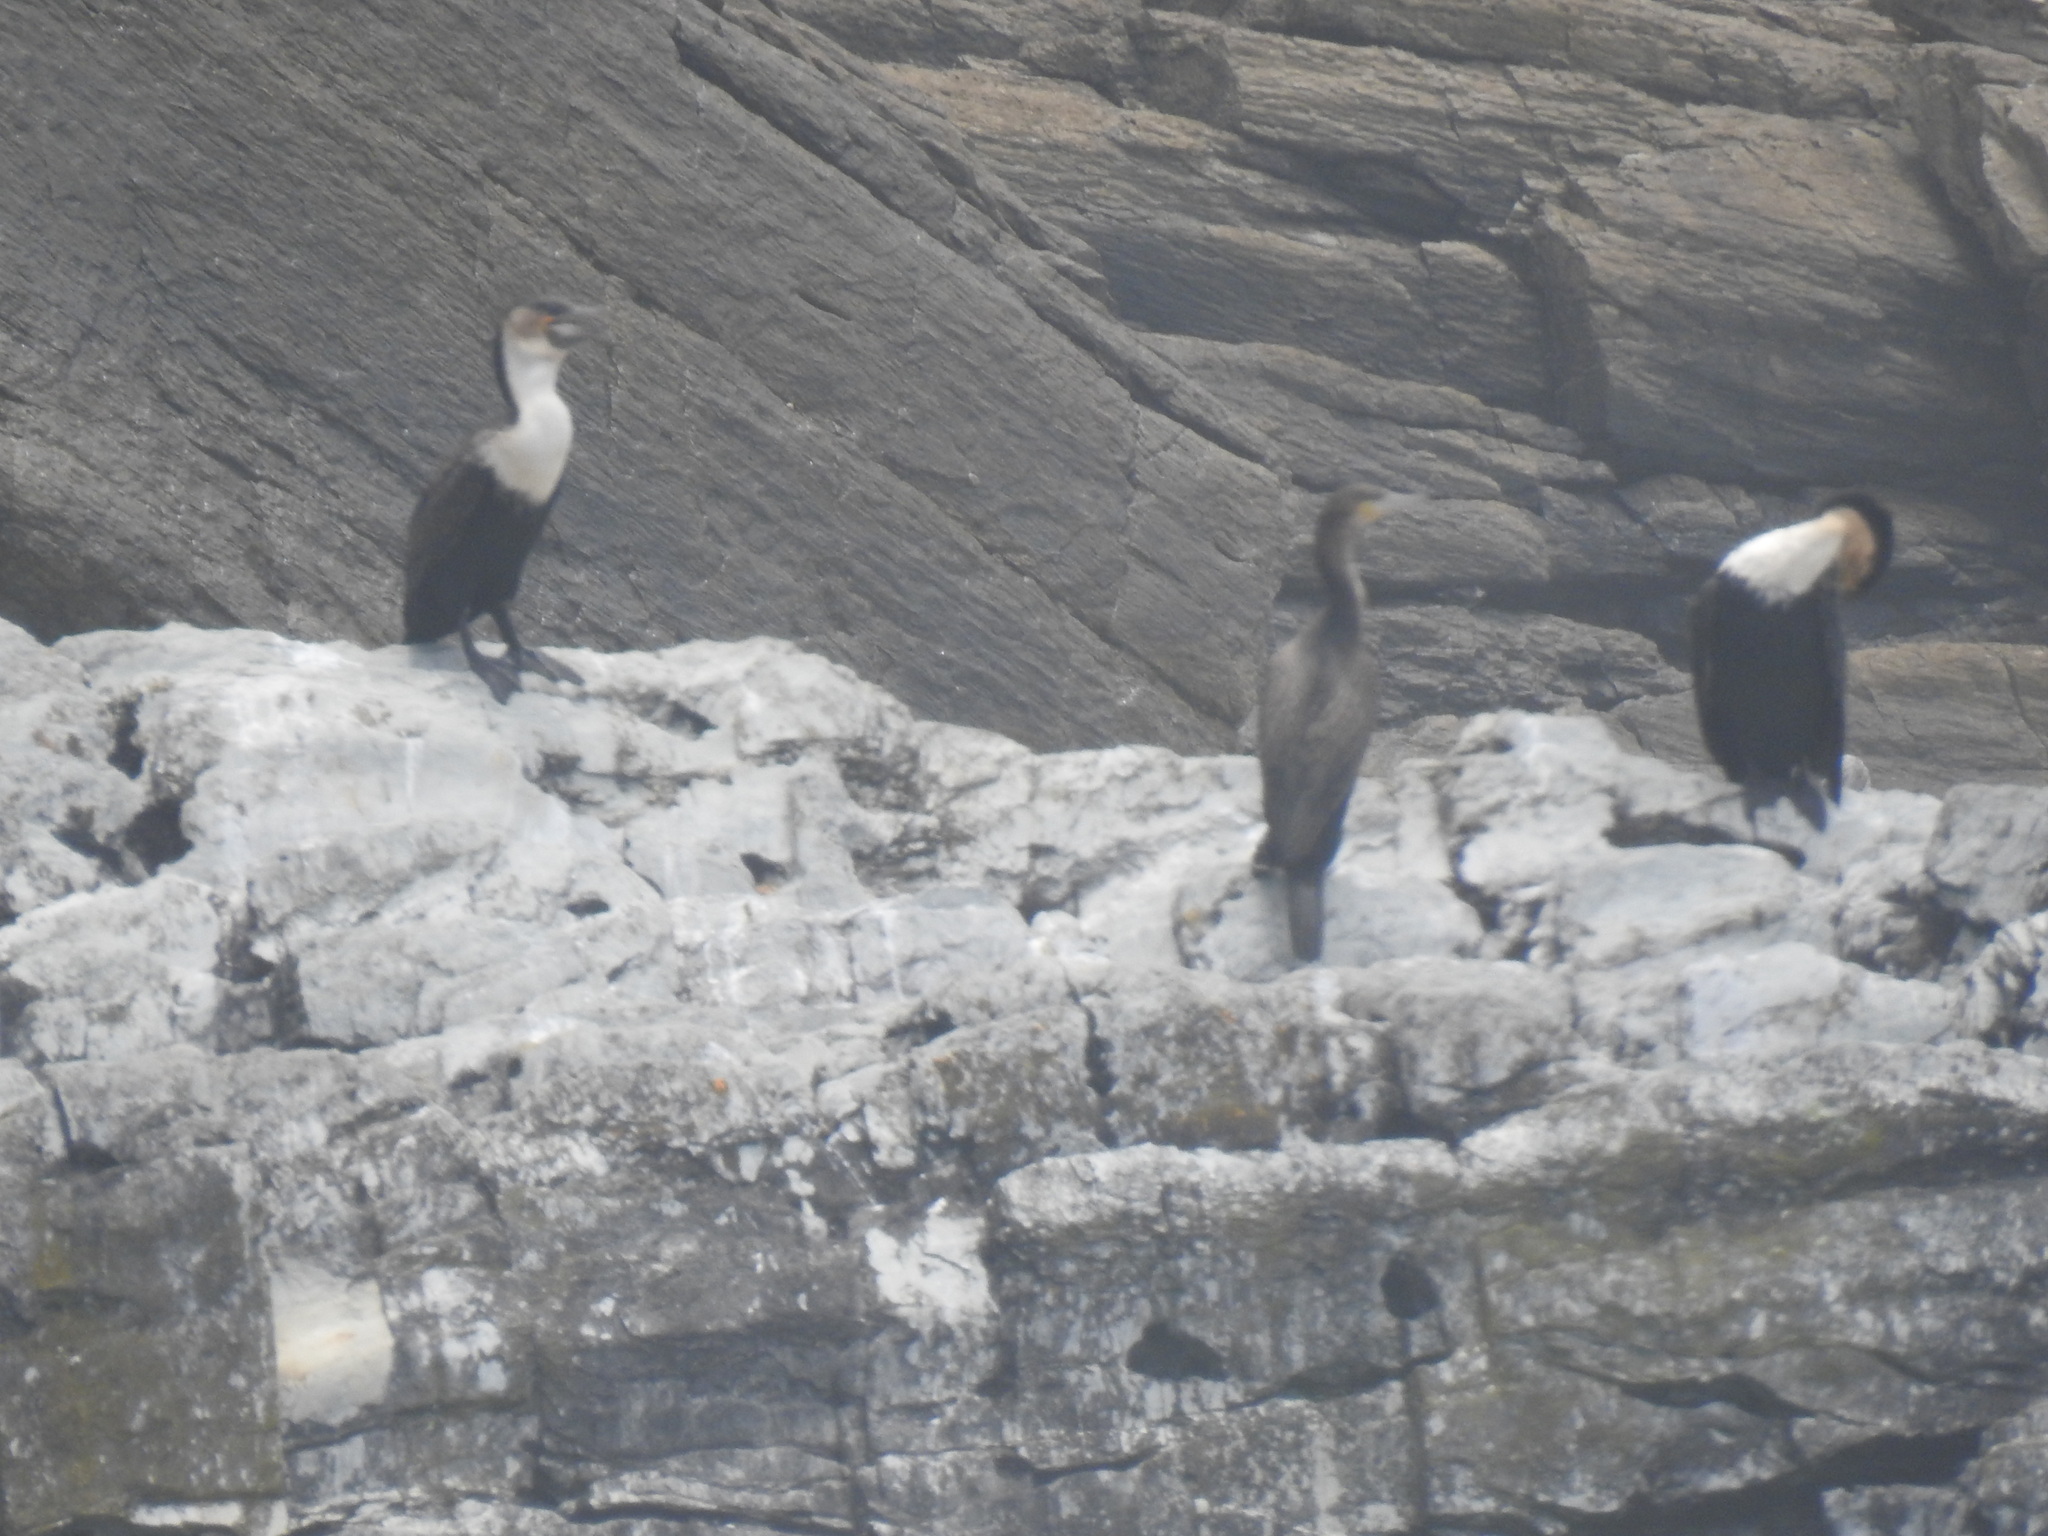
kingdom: Animalia
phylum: Chordata
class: Aves
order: Suliformes
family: Phalacrocoracidae
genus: Phalacrocorax
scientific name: Phalacrocorax carbo
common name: Great cormorant
